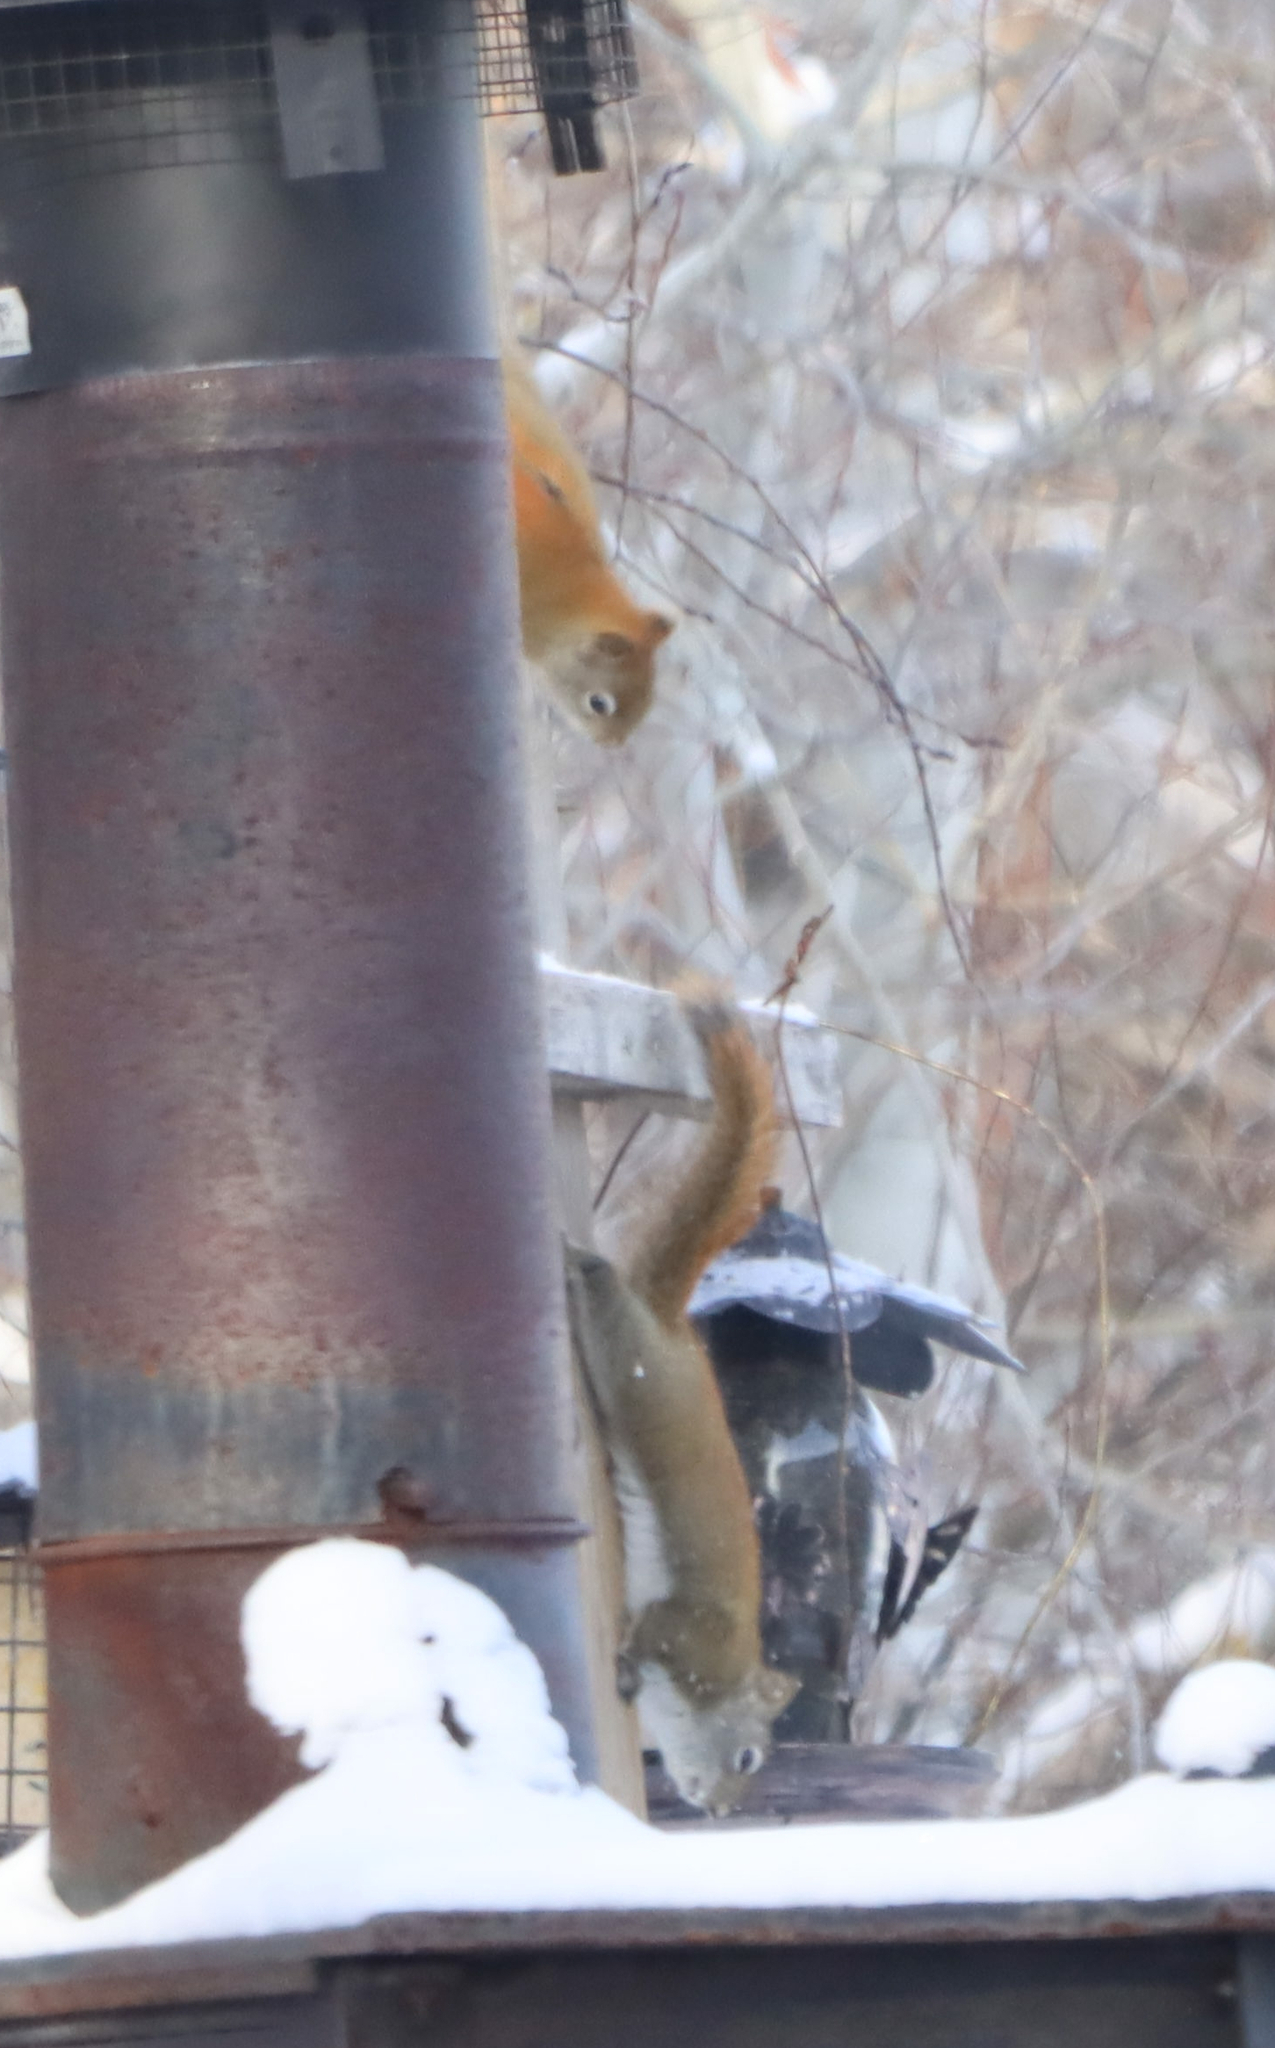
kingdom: Animalia
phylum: Chordata
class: Mammalia
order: Rodentia
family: Sciuridae
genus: Tamiasciurus
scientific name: Tamiasciurus hudsonicus
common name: Red squirrel
